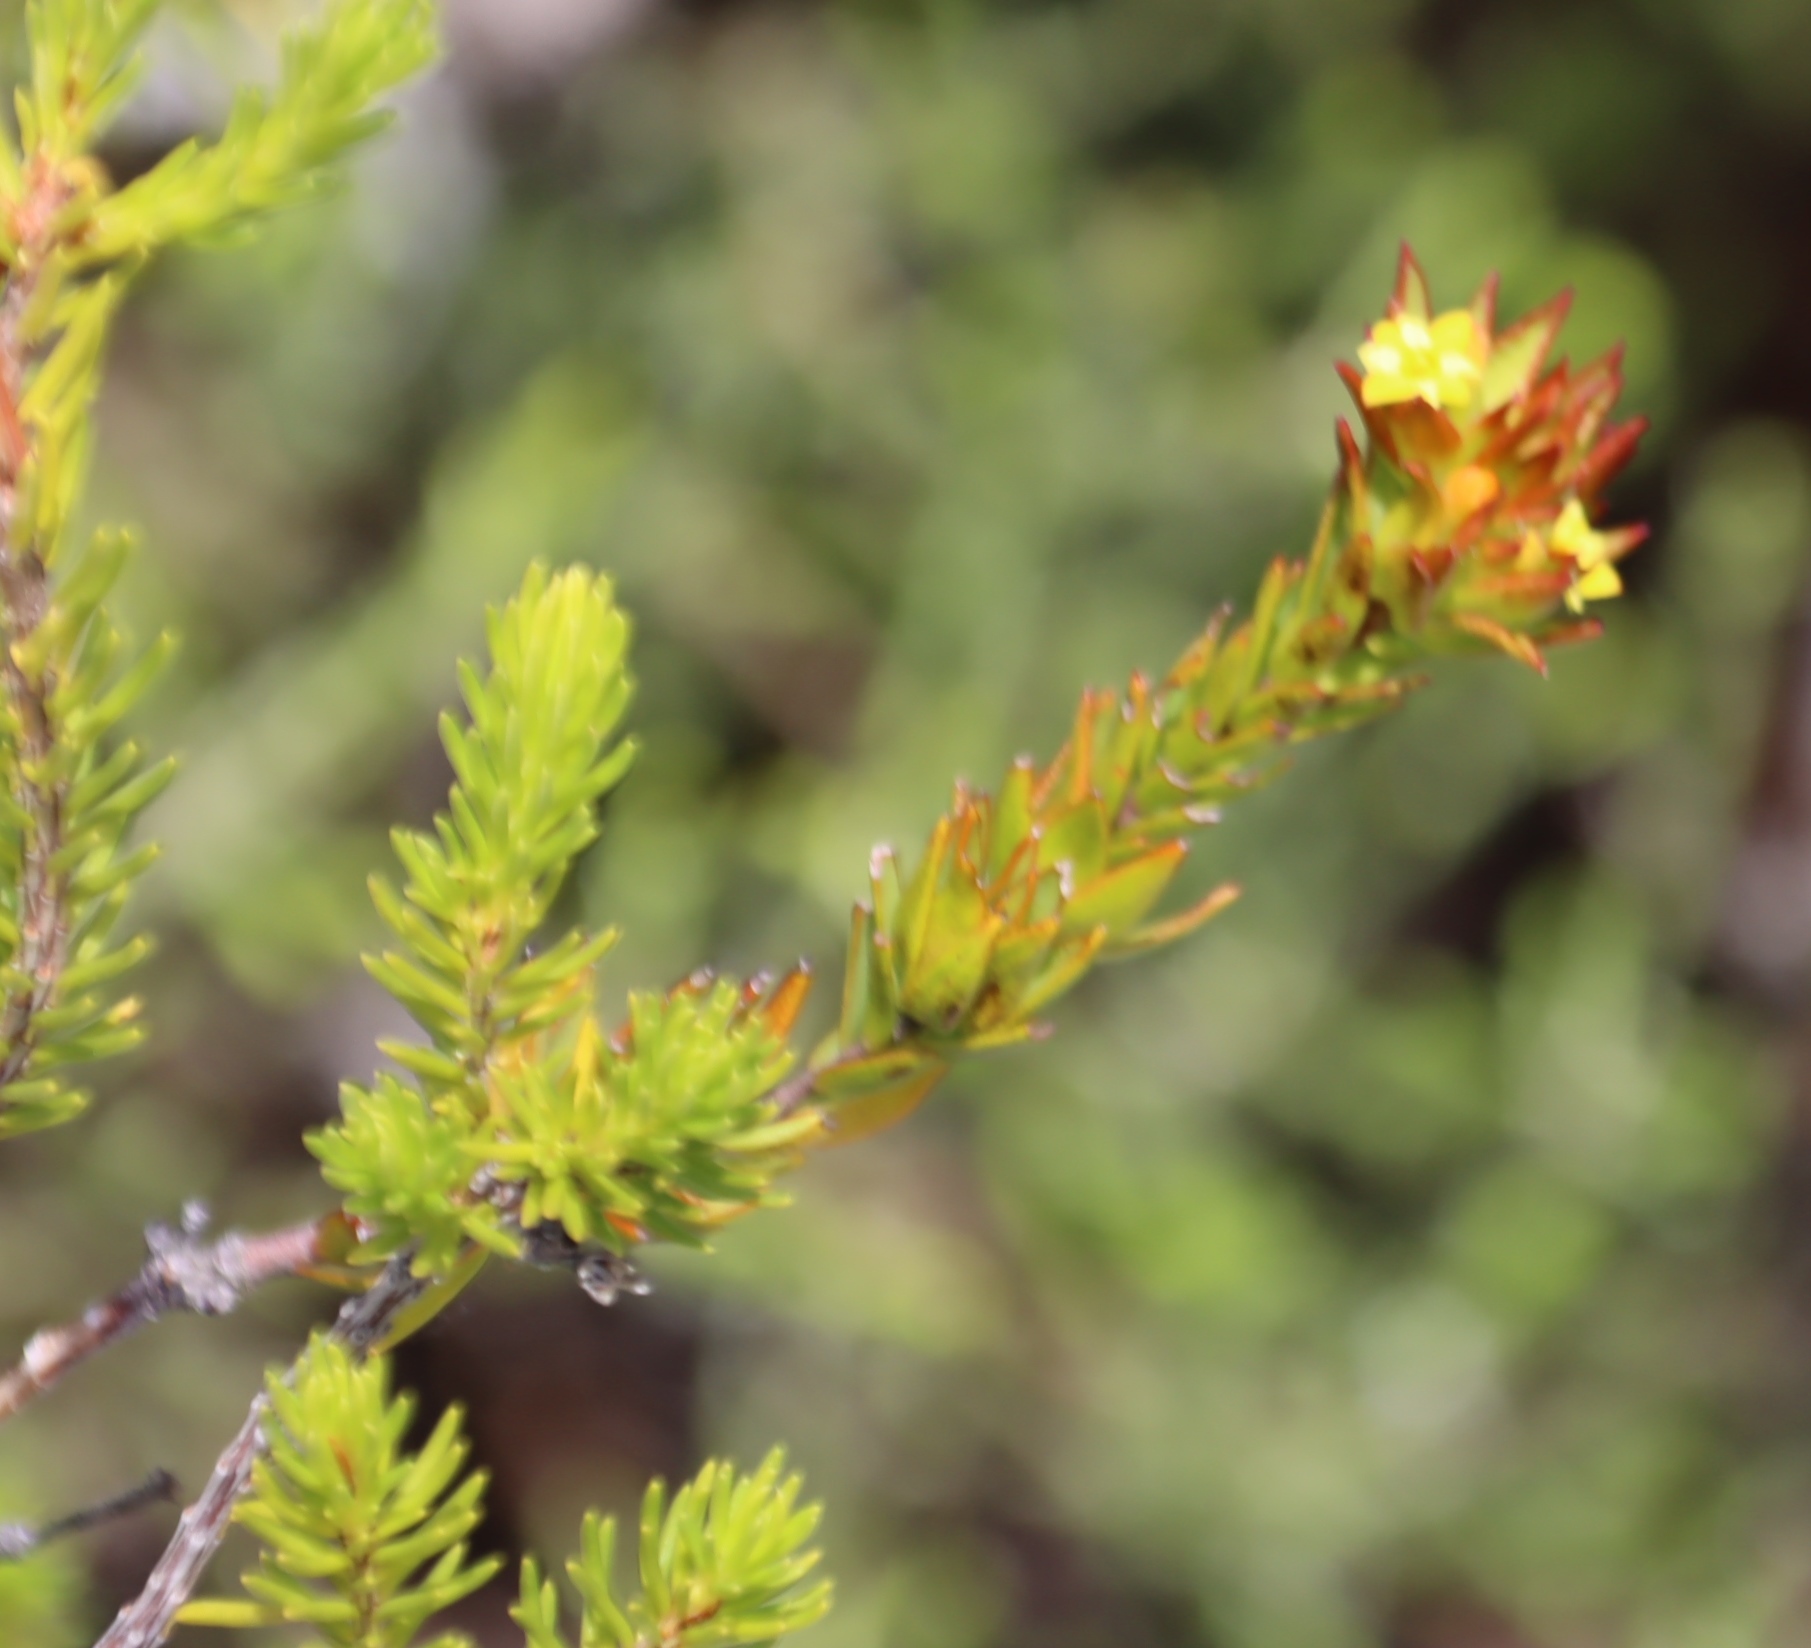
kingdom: Plantae
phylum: Tracheophyta
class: Magnoliopsida
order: Malvales
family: Thymelaeaceae
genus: Gnidia
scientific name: Gnidia juniperifolia
